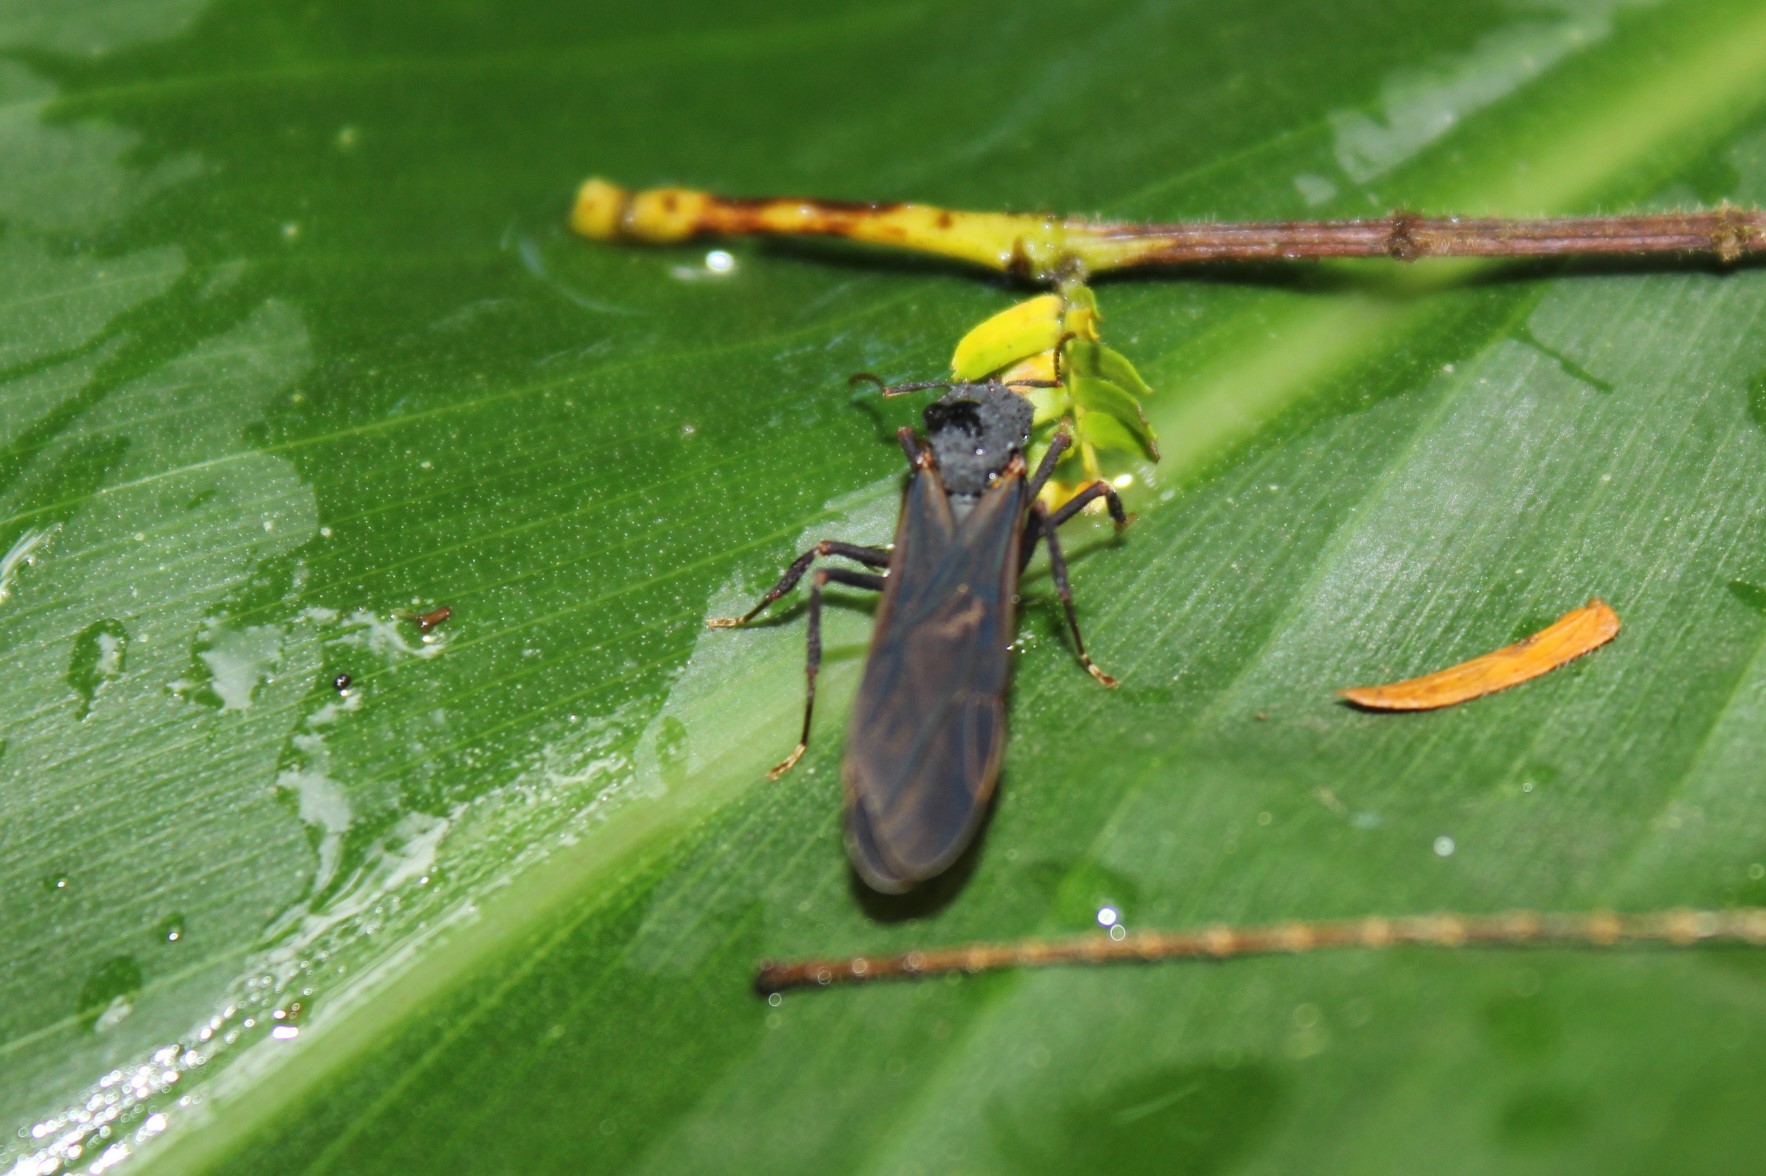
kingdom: Animalia
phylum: Arthropoda
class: Insecta
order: Hymenoptera
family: Formicidae
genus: Acromyrmex
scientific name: Acromyrmex
